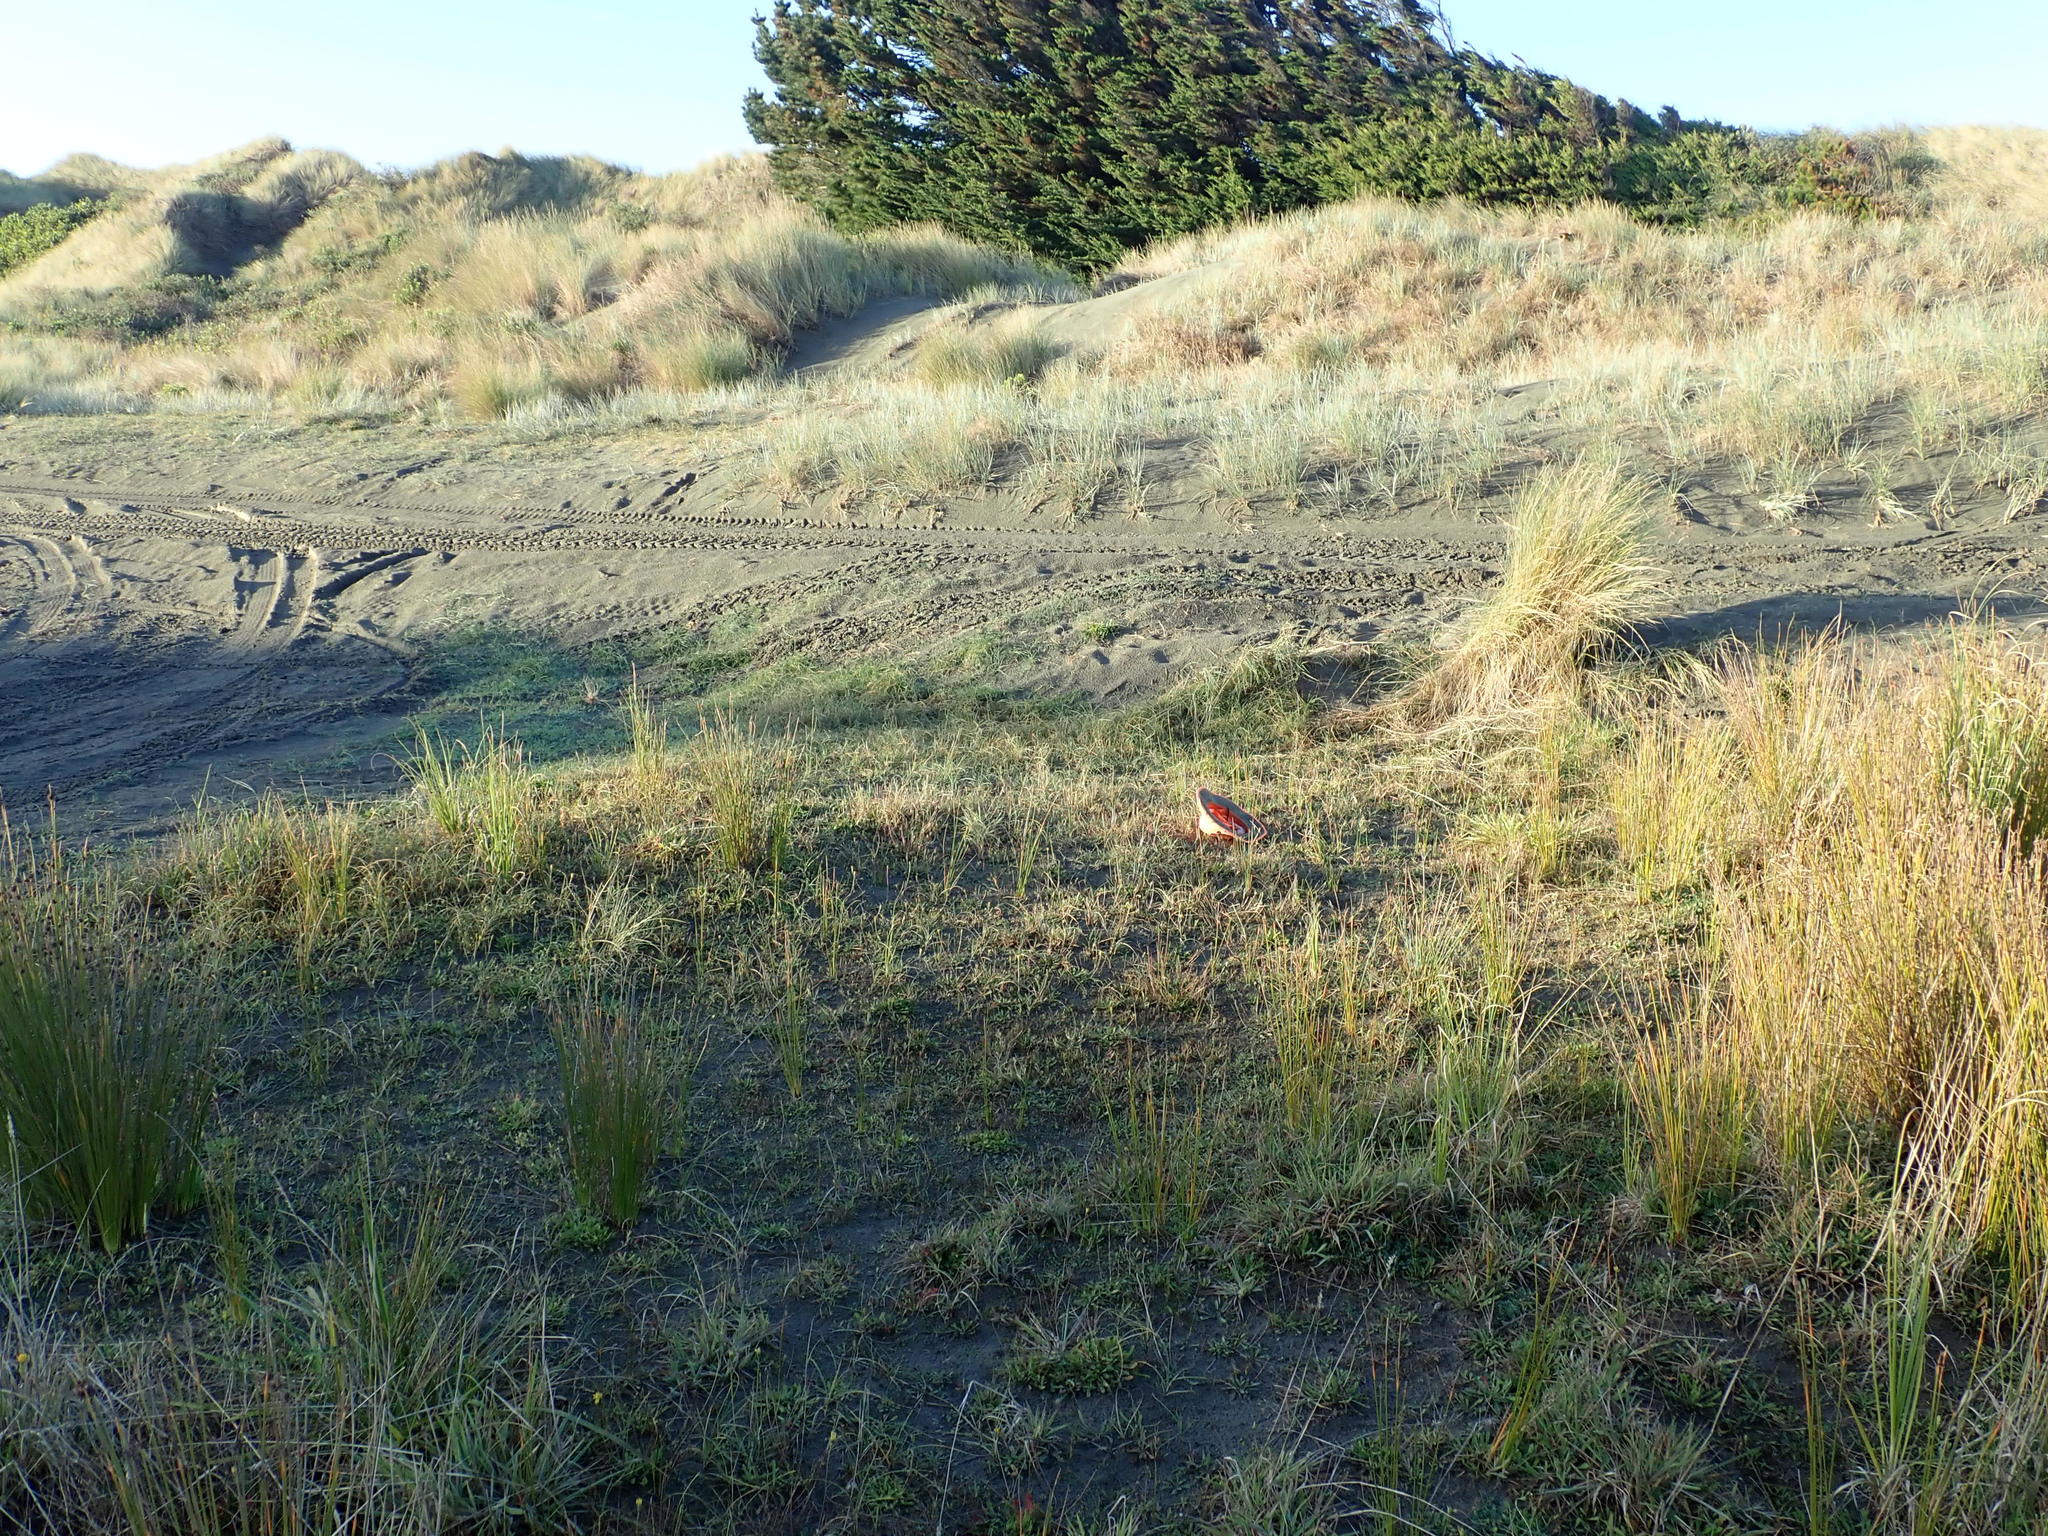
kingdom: Plantae
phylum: Tracheophyta
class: Magnoliopsida
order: Apiales
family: Apiaceae
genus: Lilaeopsis
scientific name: Lilaeopsis novae-zelandiae
